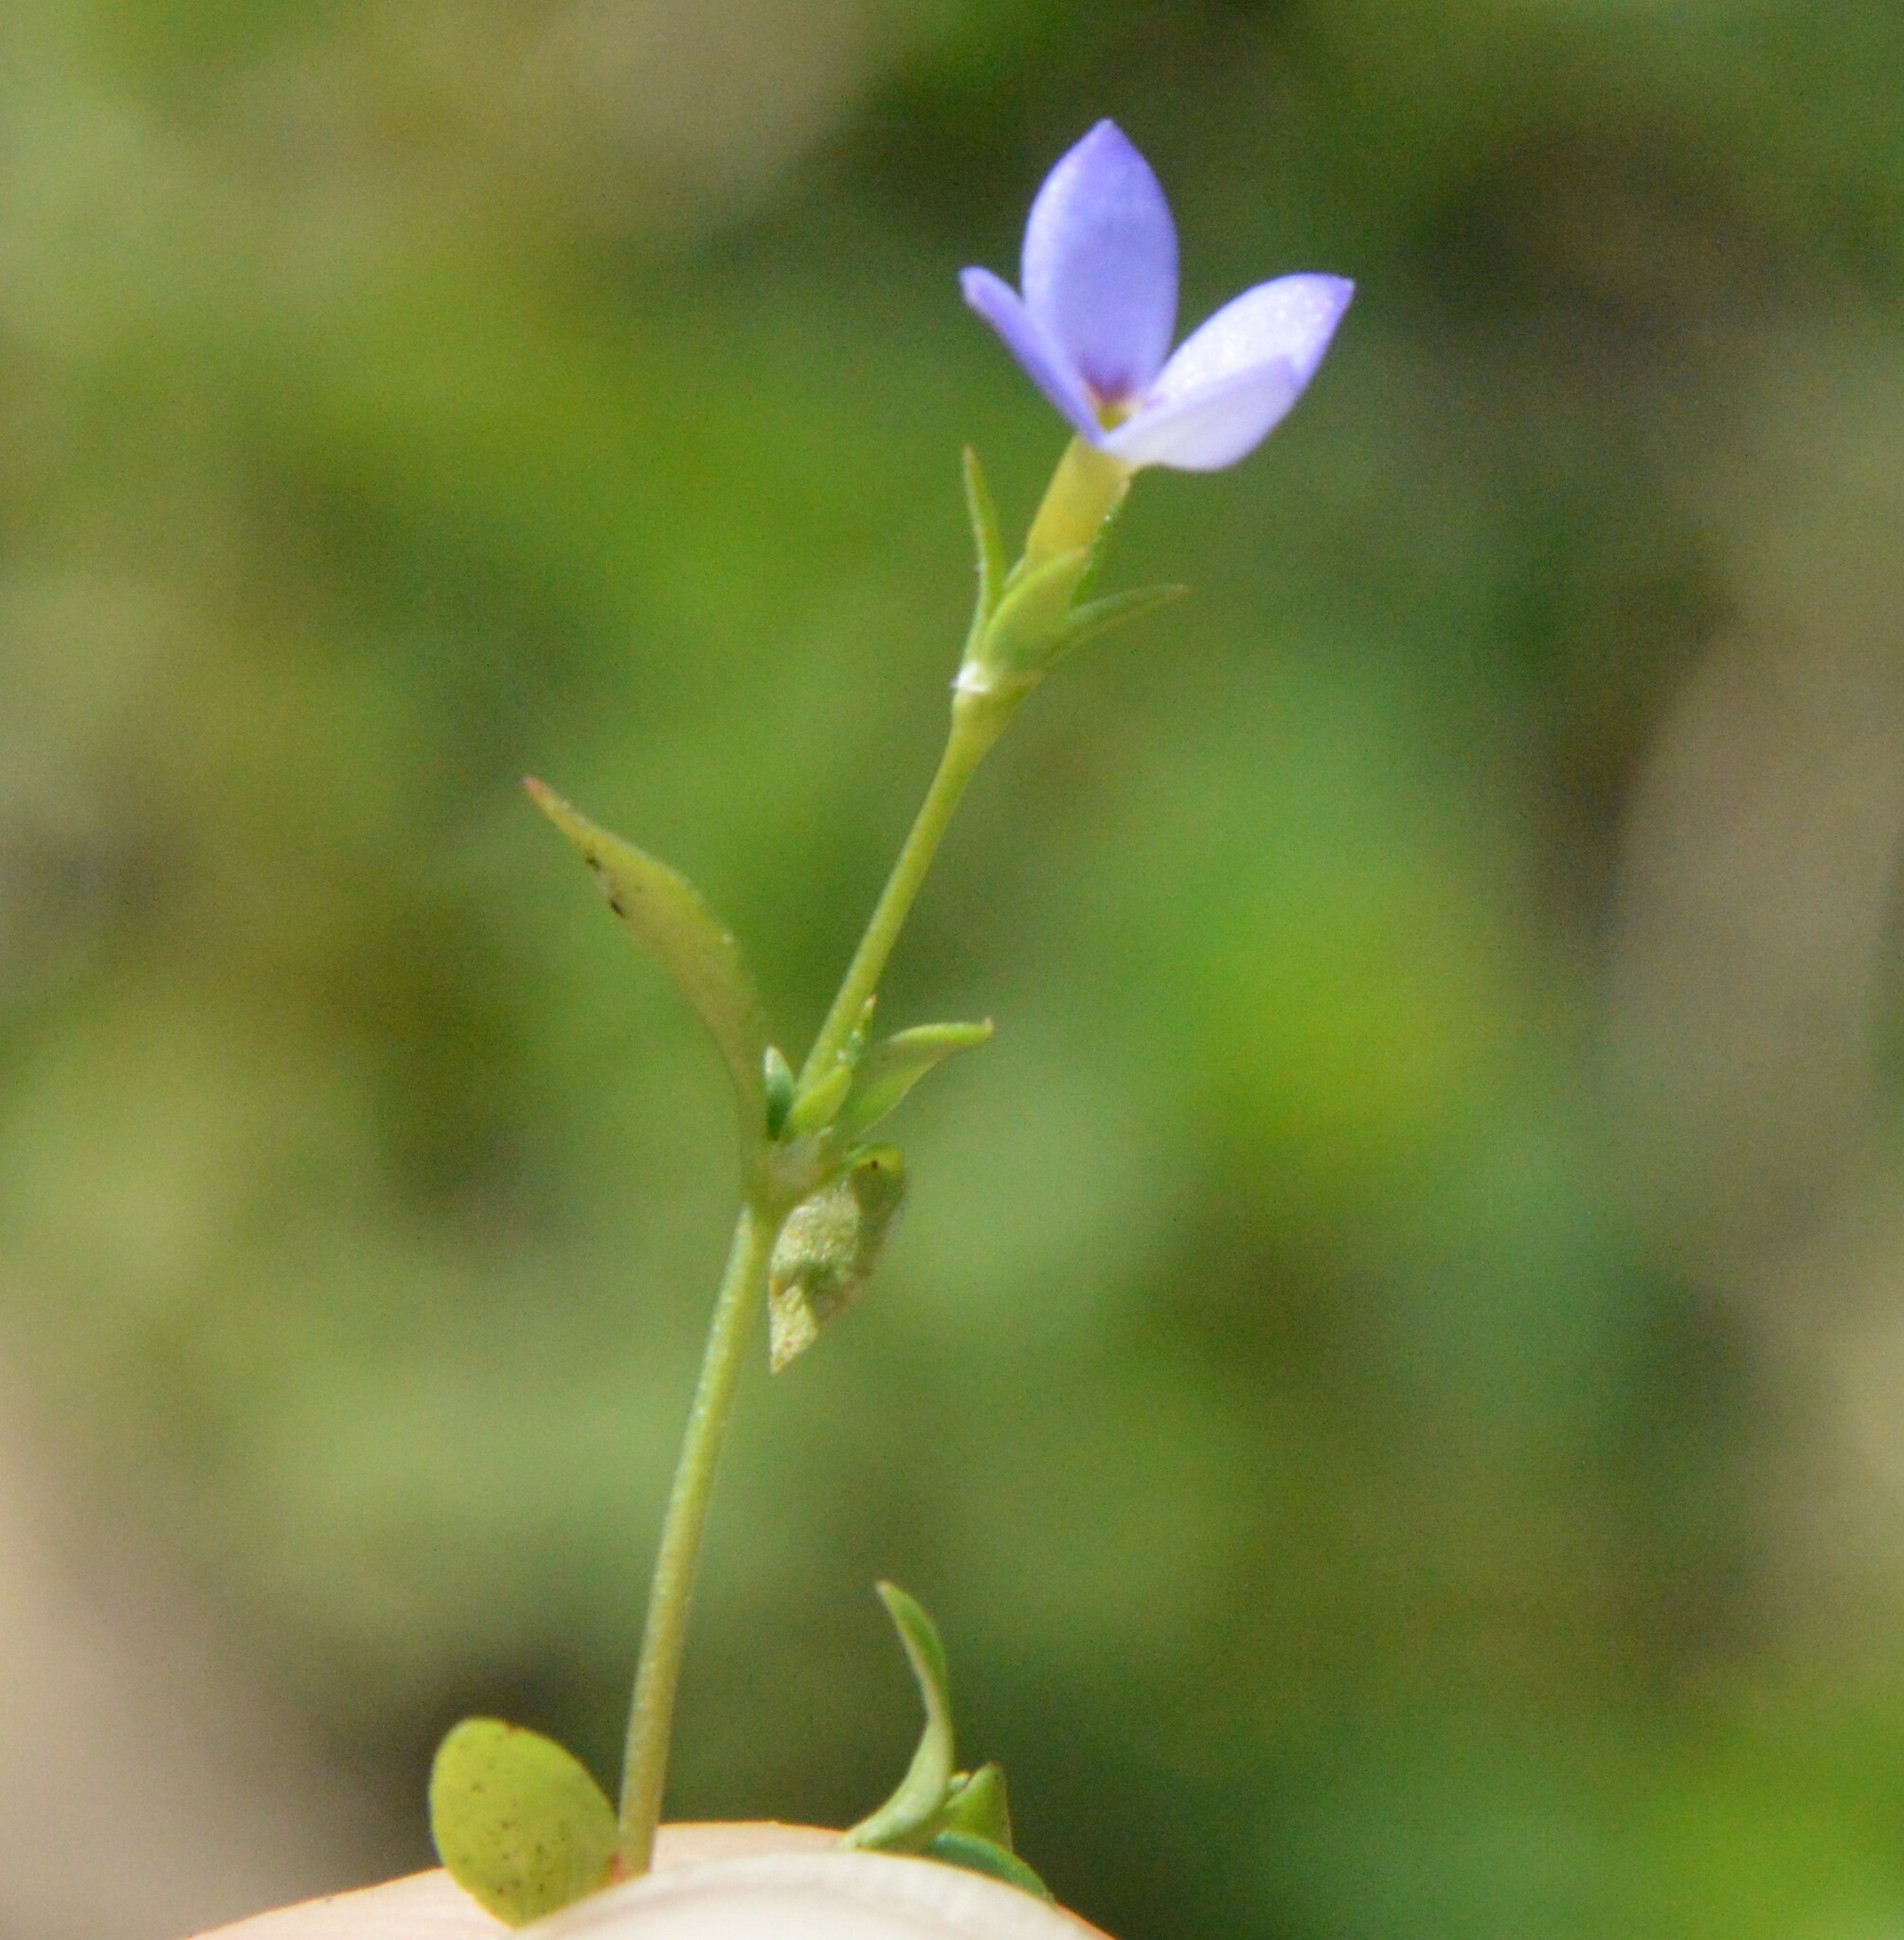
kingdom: Plantae
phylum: Tracheophyta
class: Magnoliopsida
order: Gentianales
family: Rubiaceae
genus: Houstonia
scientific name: Houstonia pusilla
